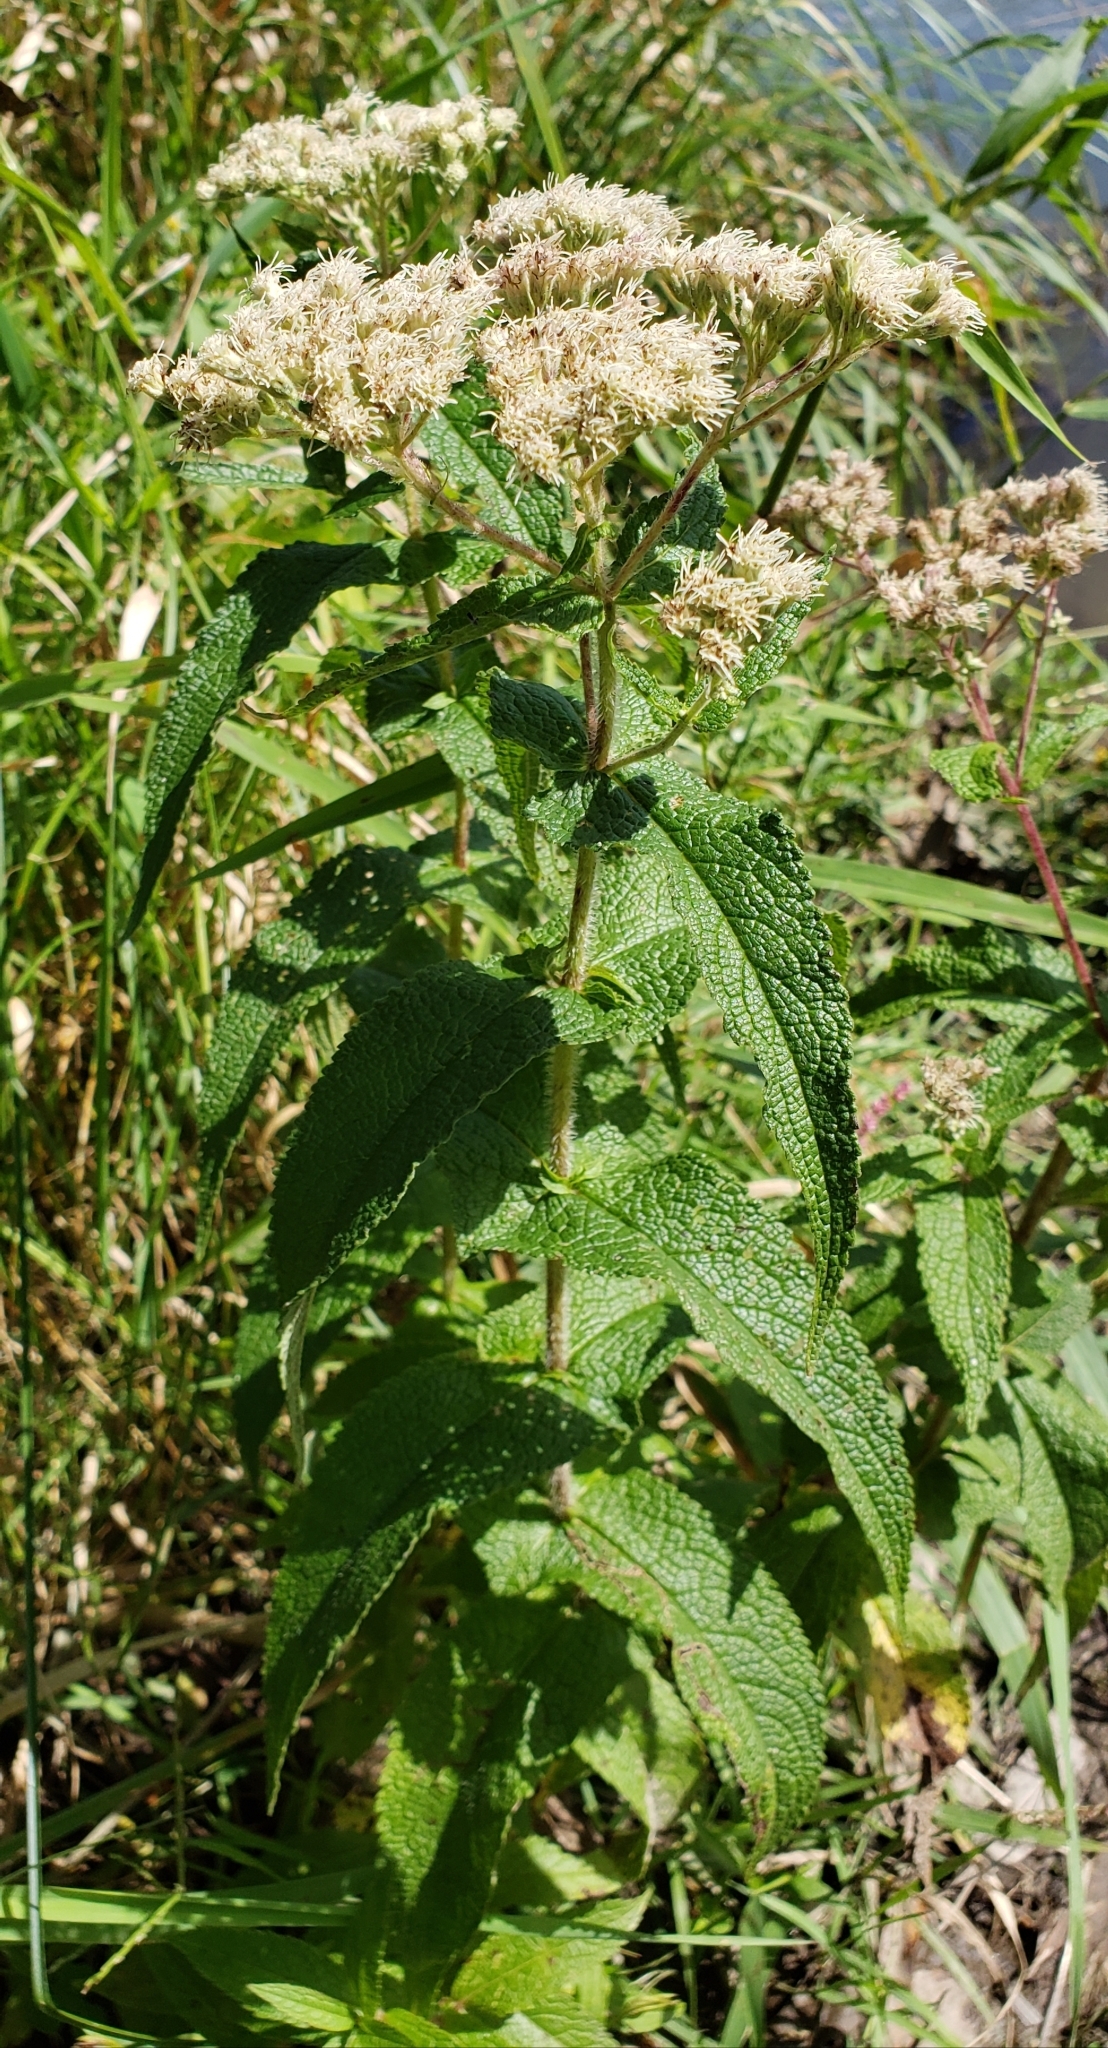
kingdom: Plantae
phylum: Tracheophyta
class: Magnoliopsida
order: Asterales
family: Asteraceae
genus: Eupatorium
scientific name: Eupatorium perfoliatum
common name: Boneset
